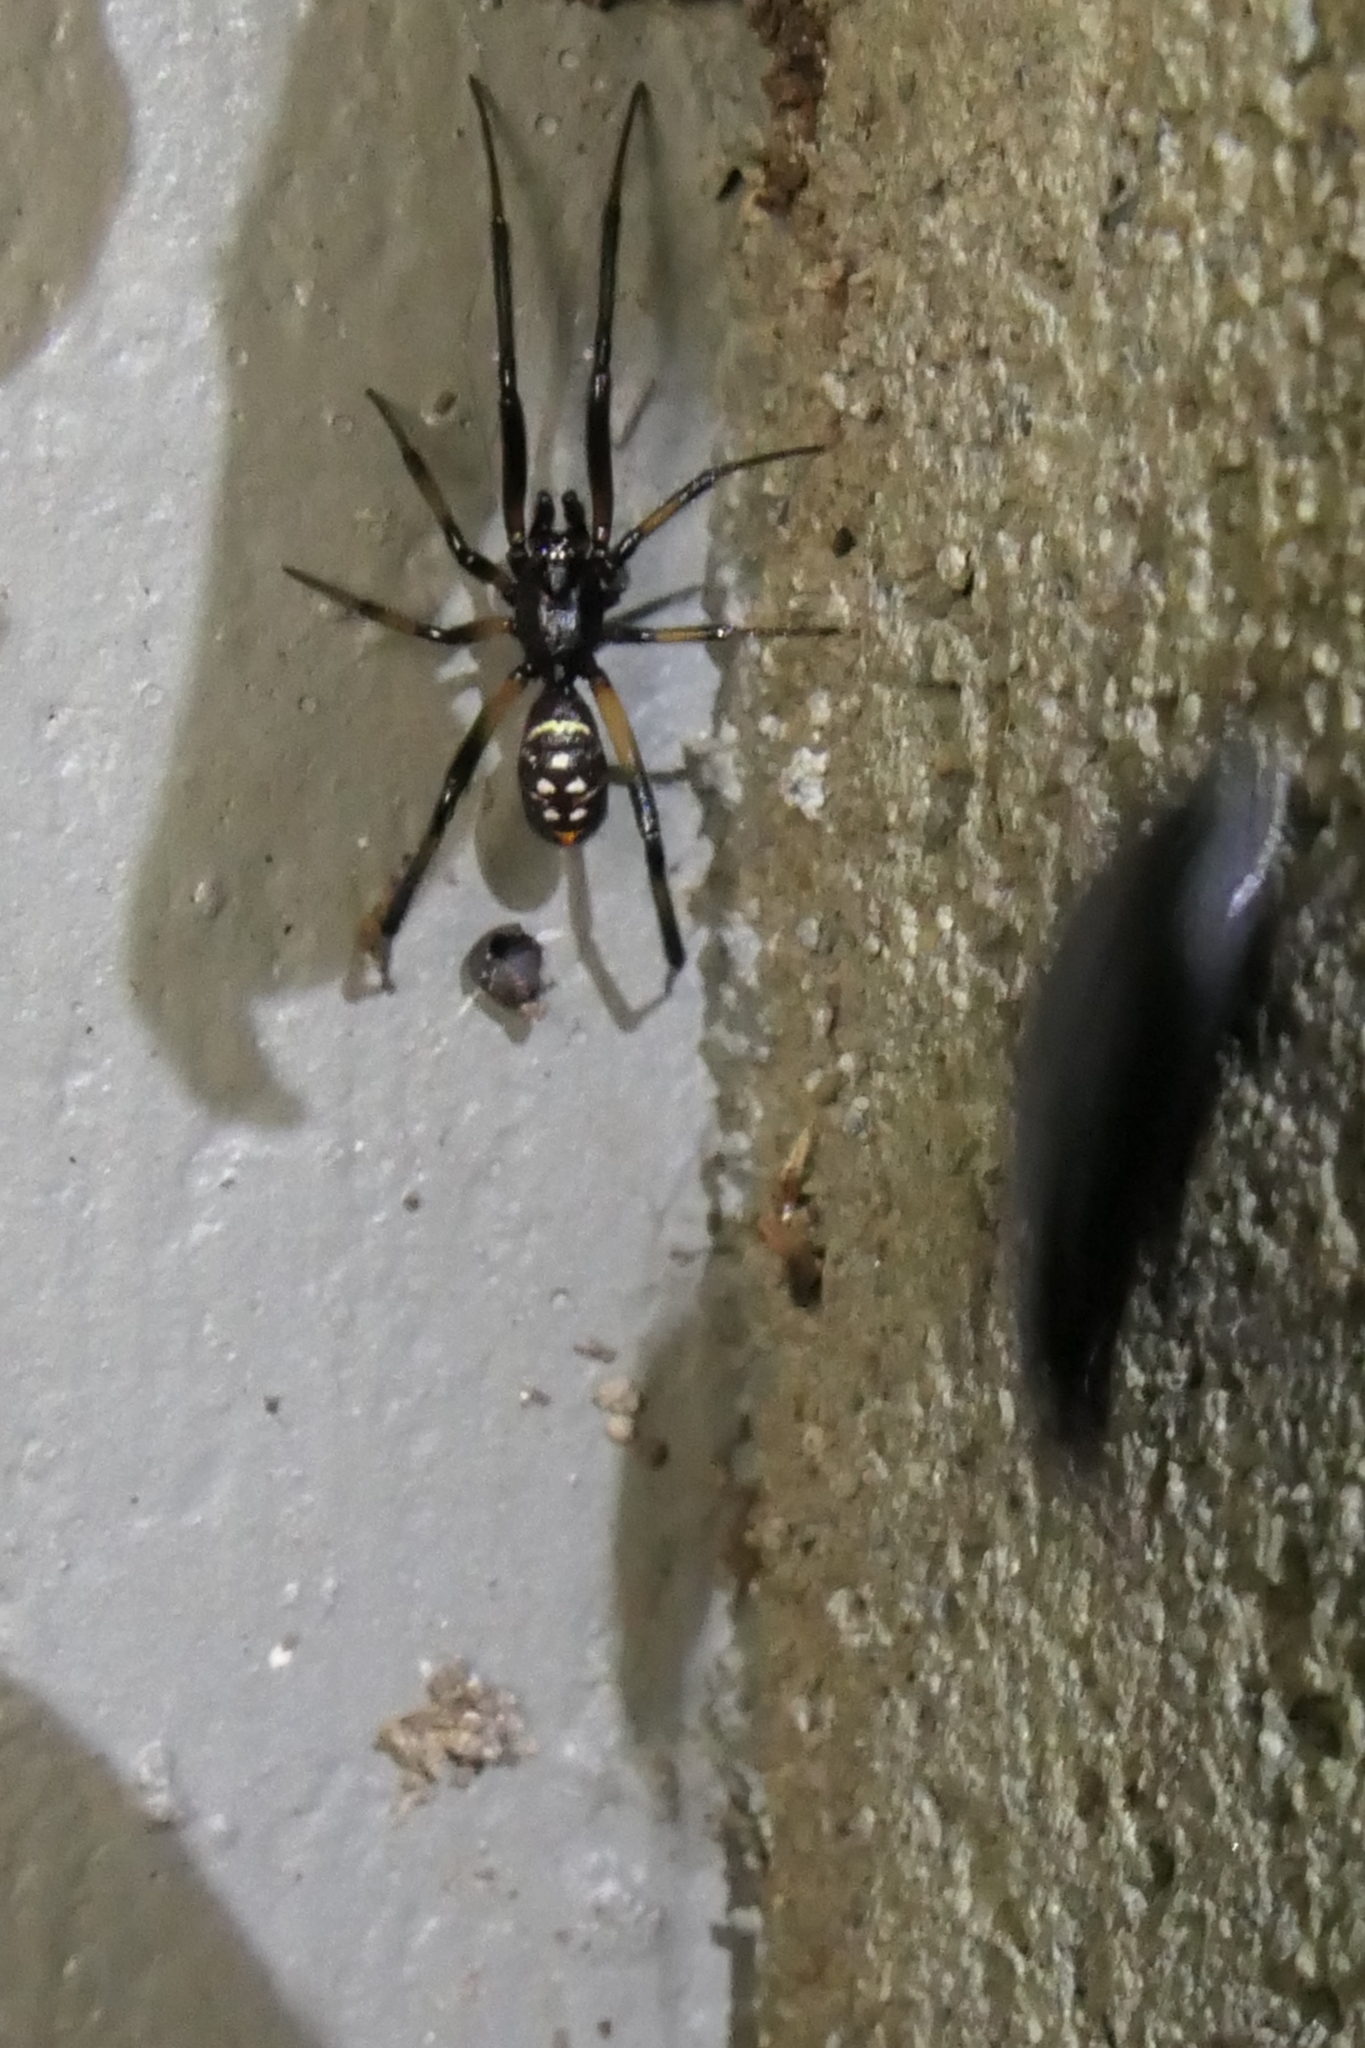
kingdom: Animalia
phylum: Arthropoda
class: Arachnida
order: Araneae
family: Theridiidae
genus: Steatoda
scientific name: Steatoda capensis
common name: Cobweb weaver
